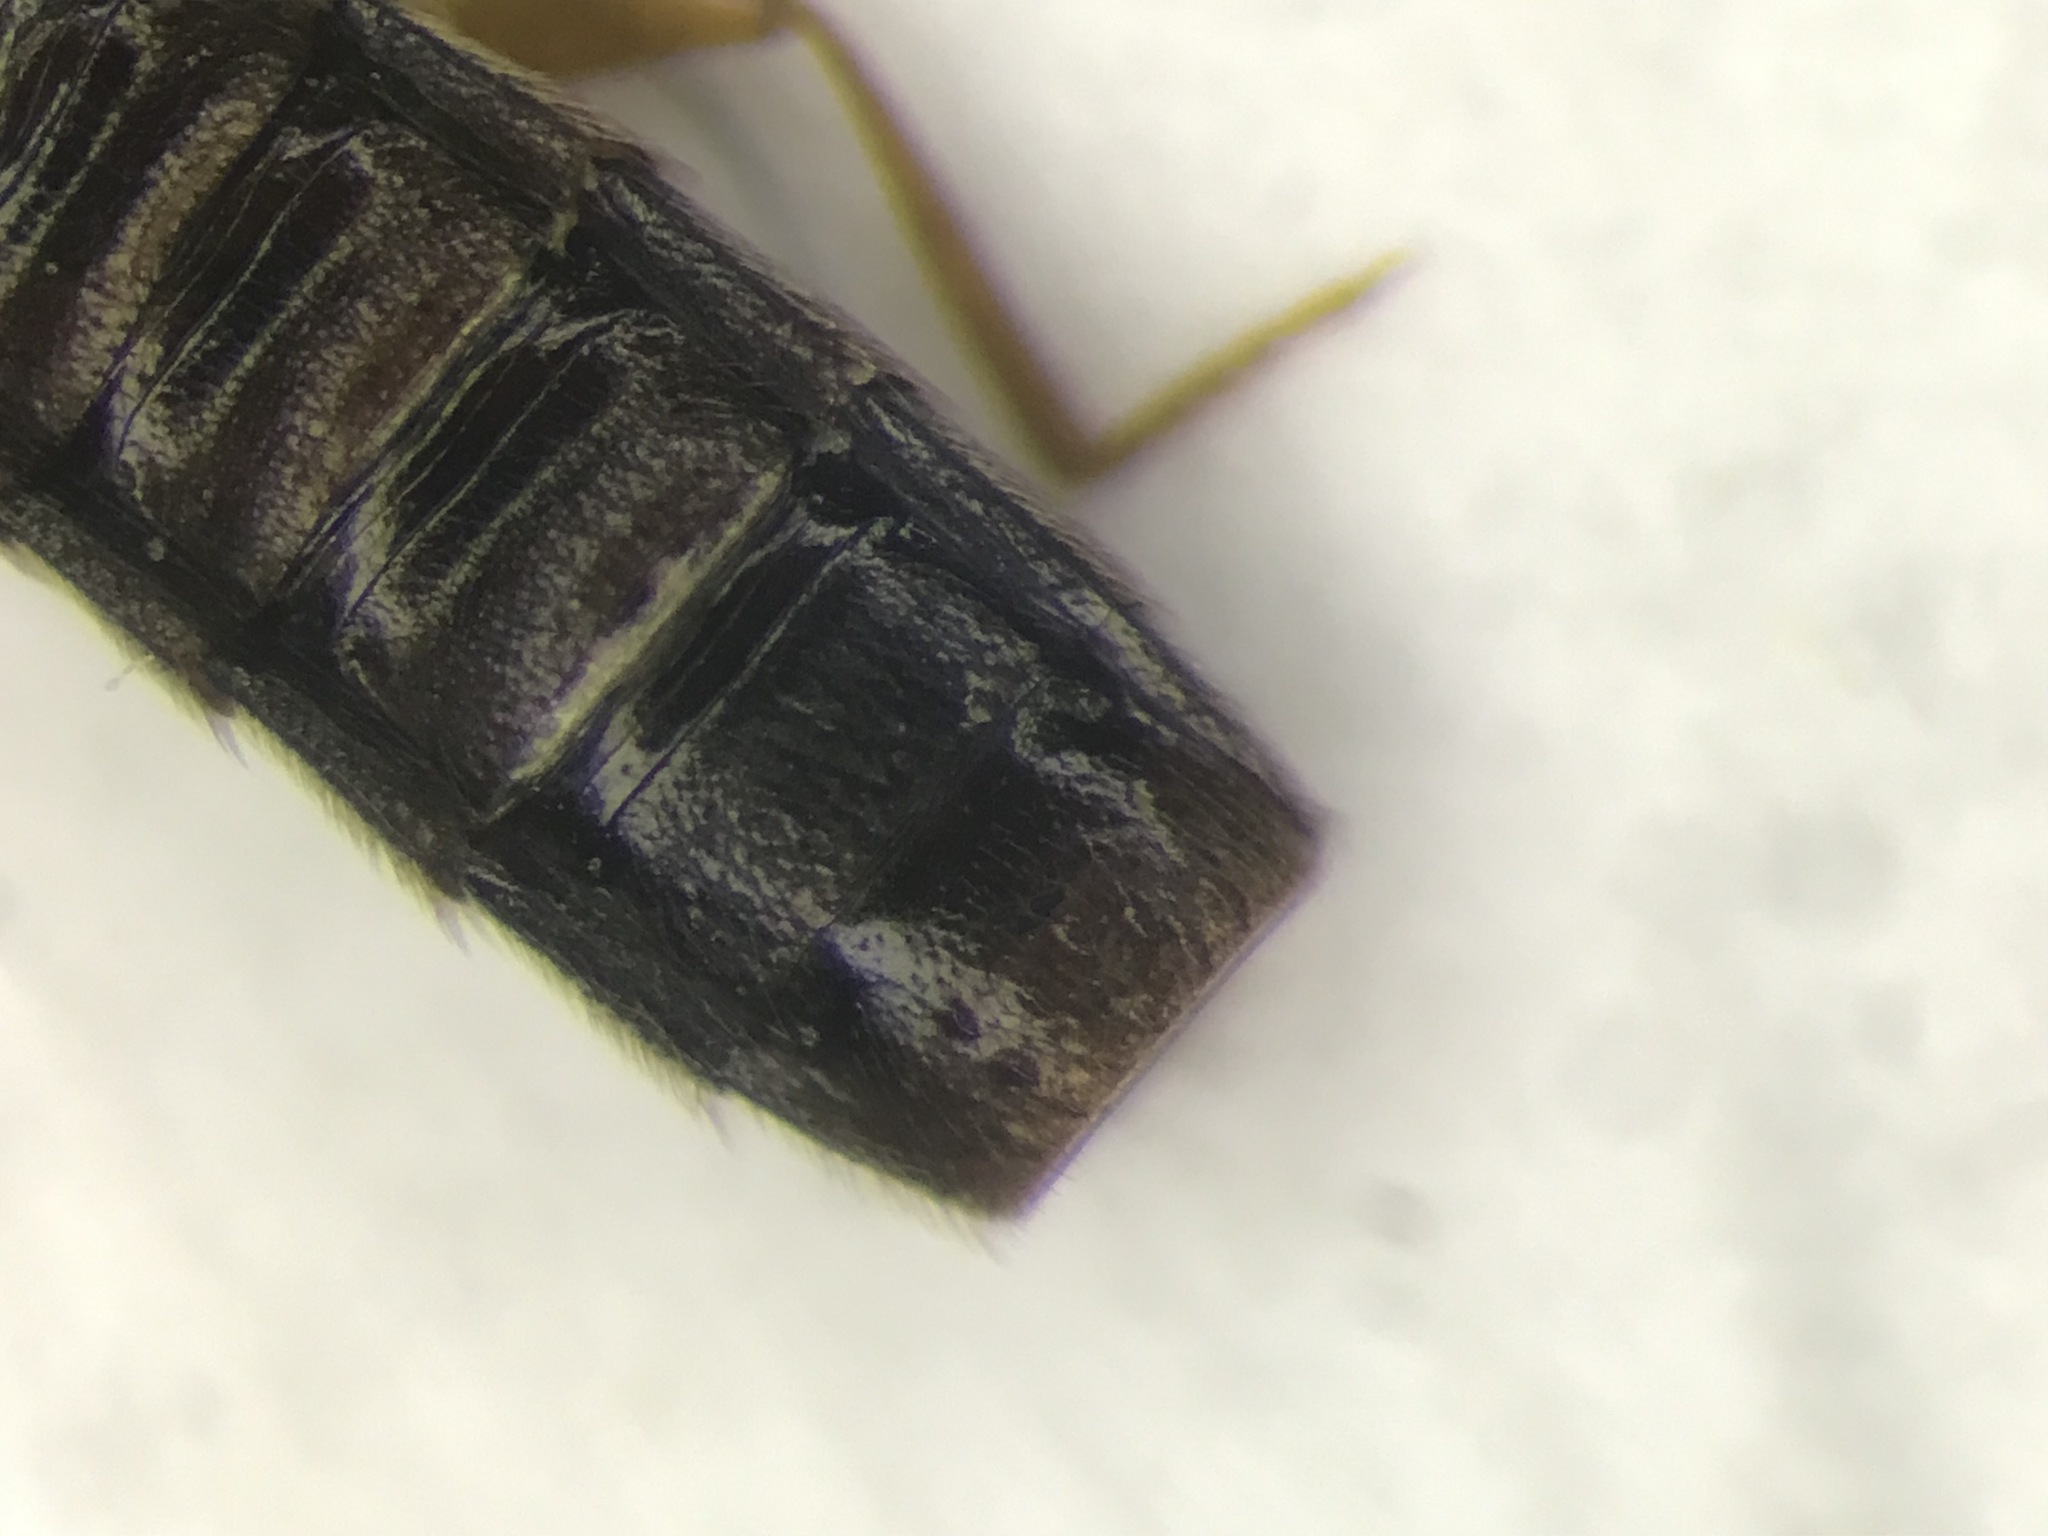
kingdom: Animalia
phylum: Arthropoda
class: Insecta
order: Coleoptera
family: Staphylinidae
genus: Dinaraea
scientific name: Dinaraea angustula
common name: Staphylinid beetle
